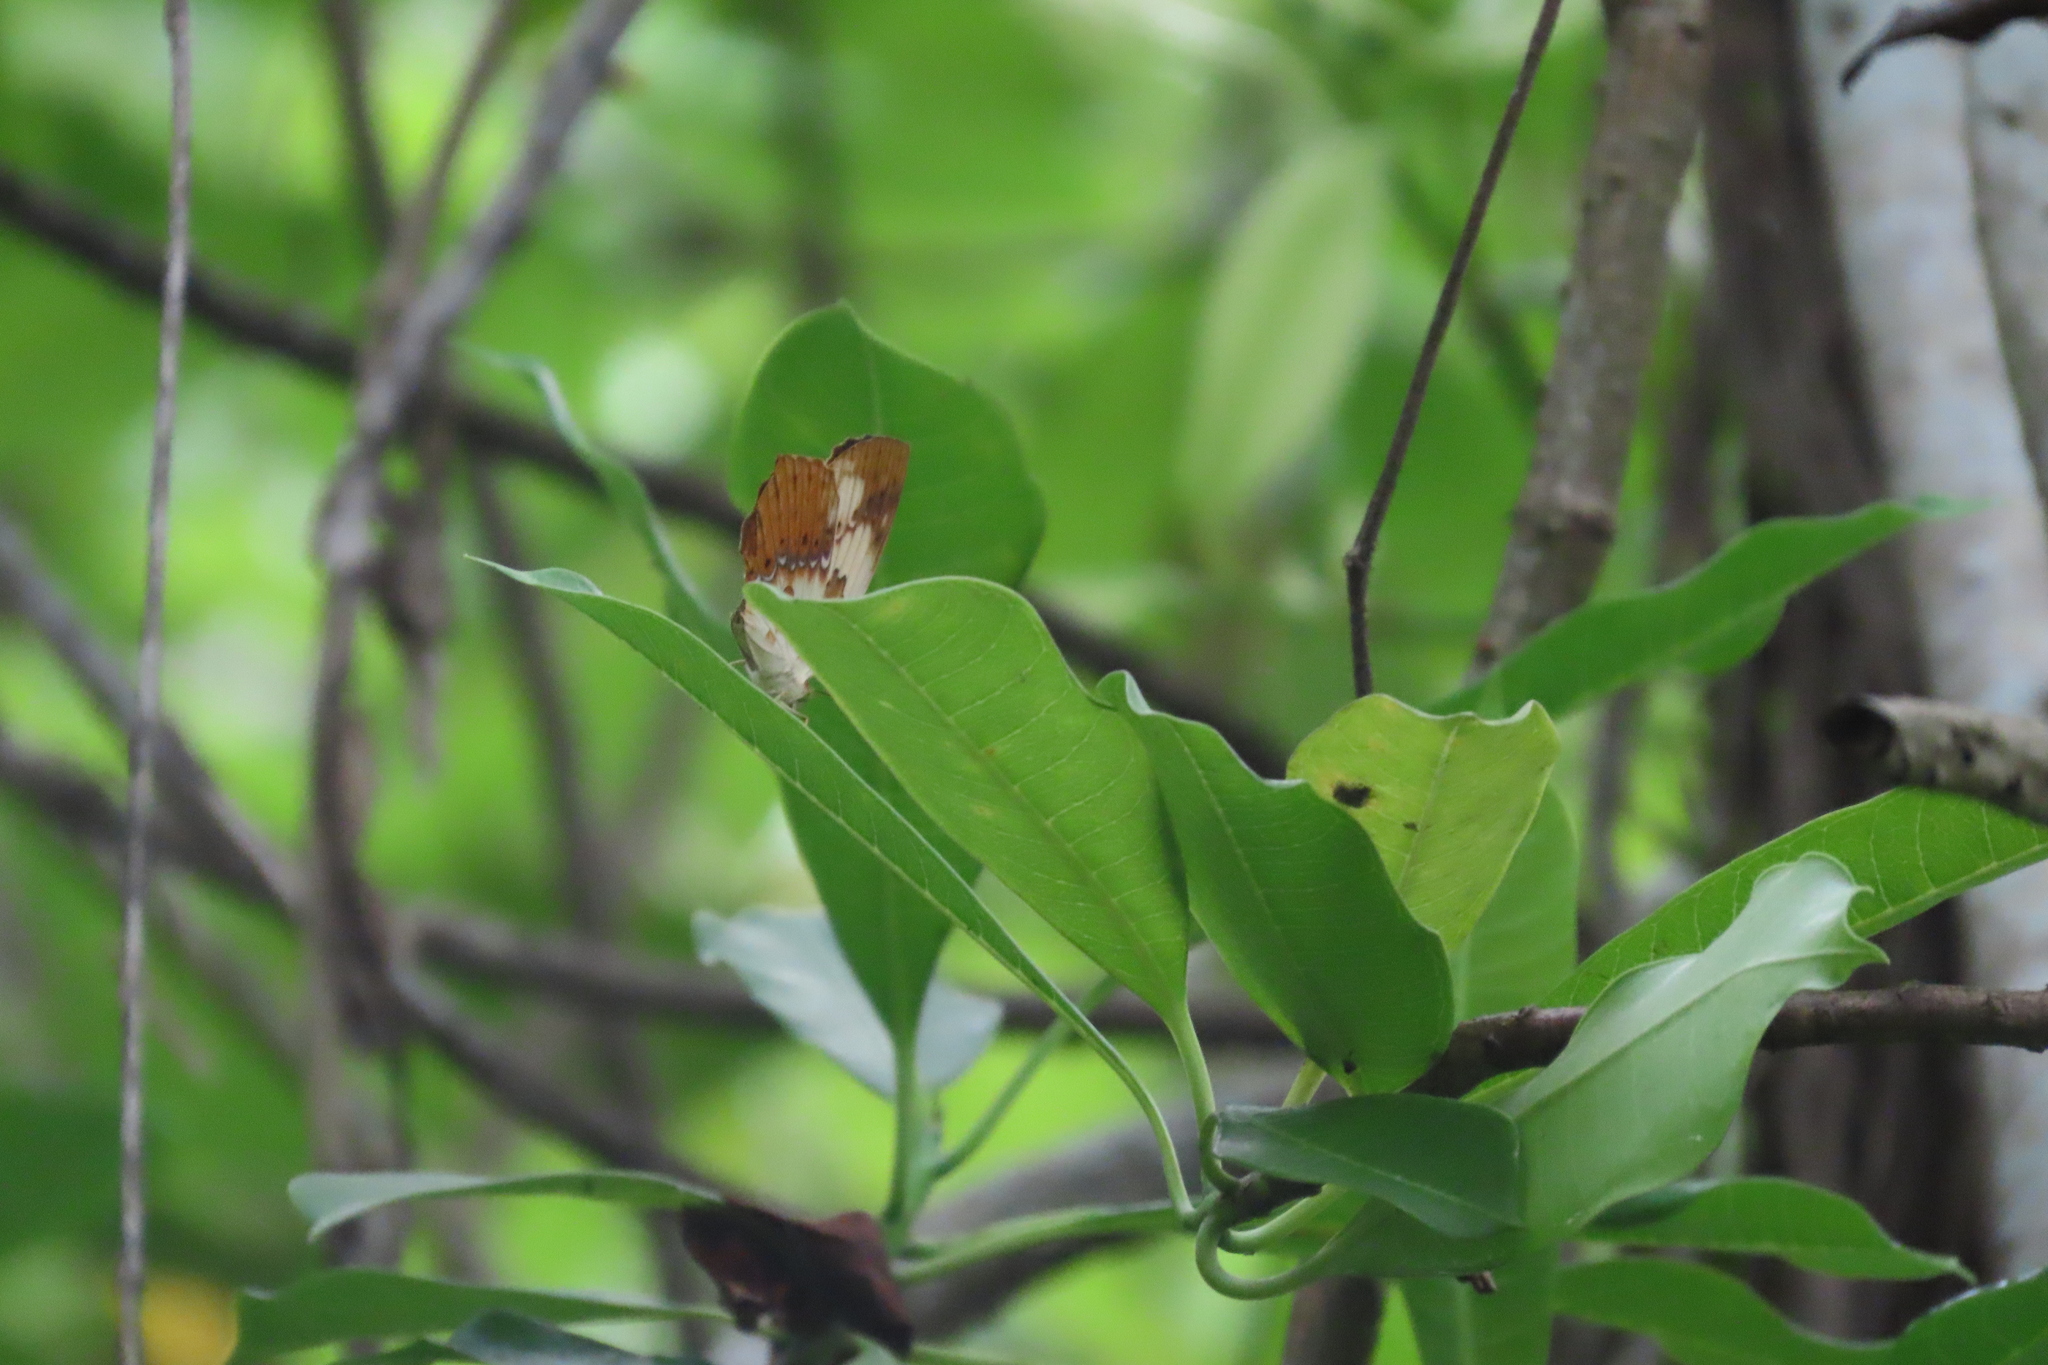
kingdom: Animalia
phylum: Arthropoda
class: Insecta
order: Lepidoptera
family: Nymphalidae
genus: Cupha
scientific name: Cupha erymanthis
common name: Rustic
